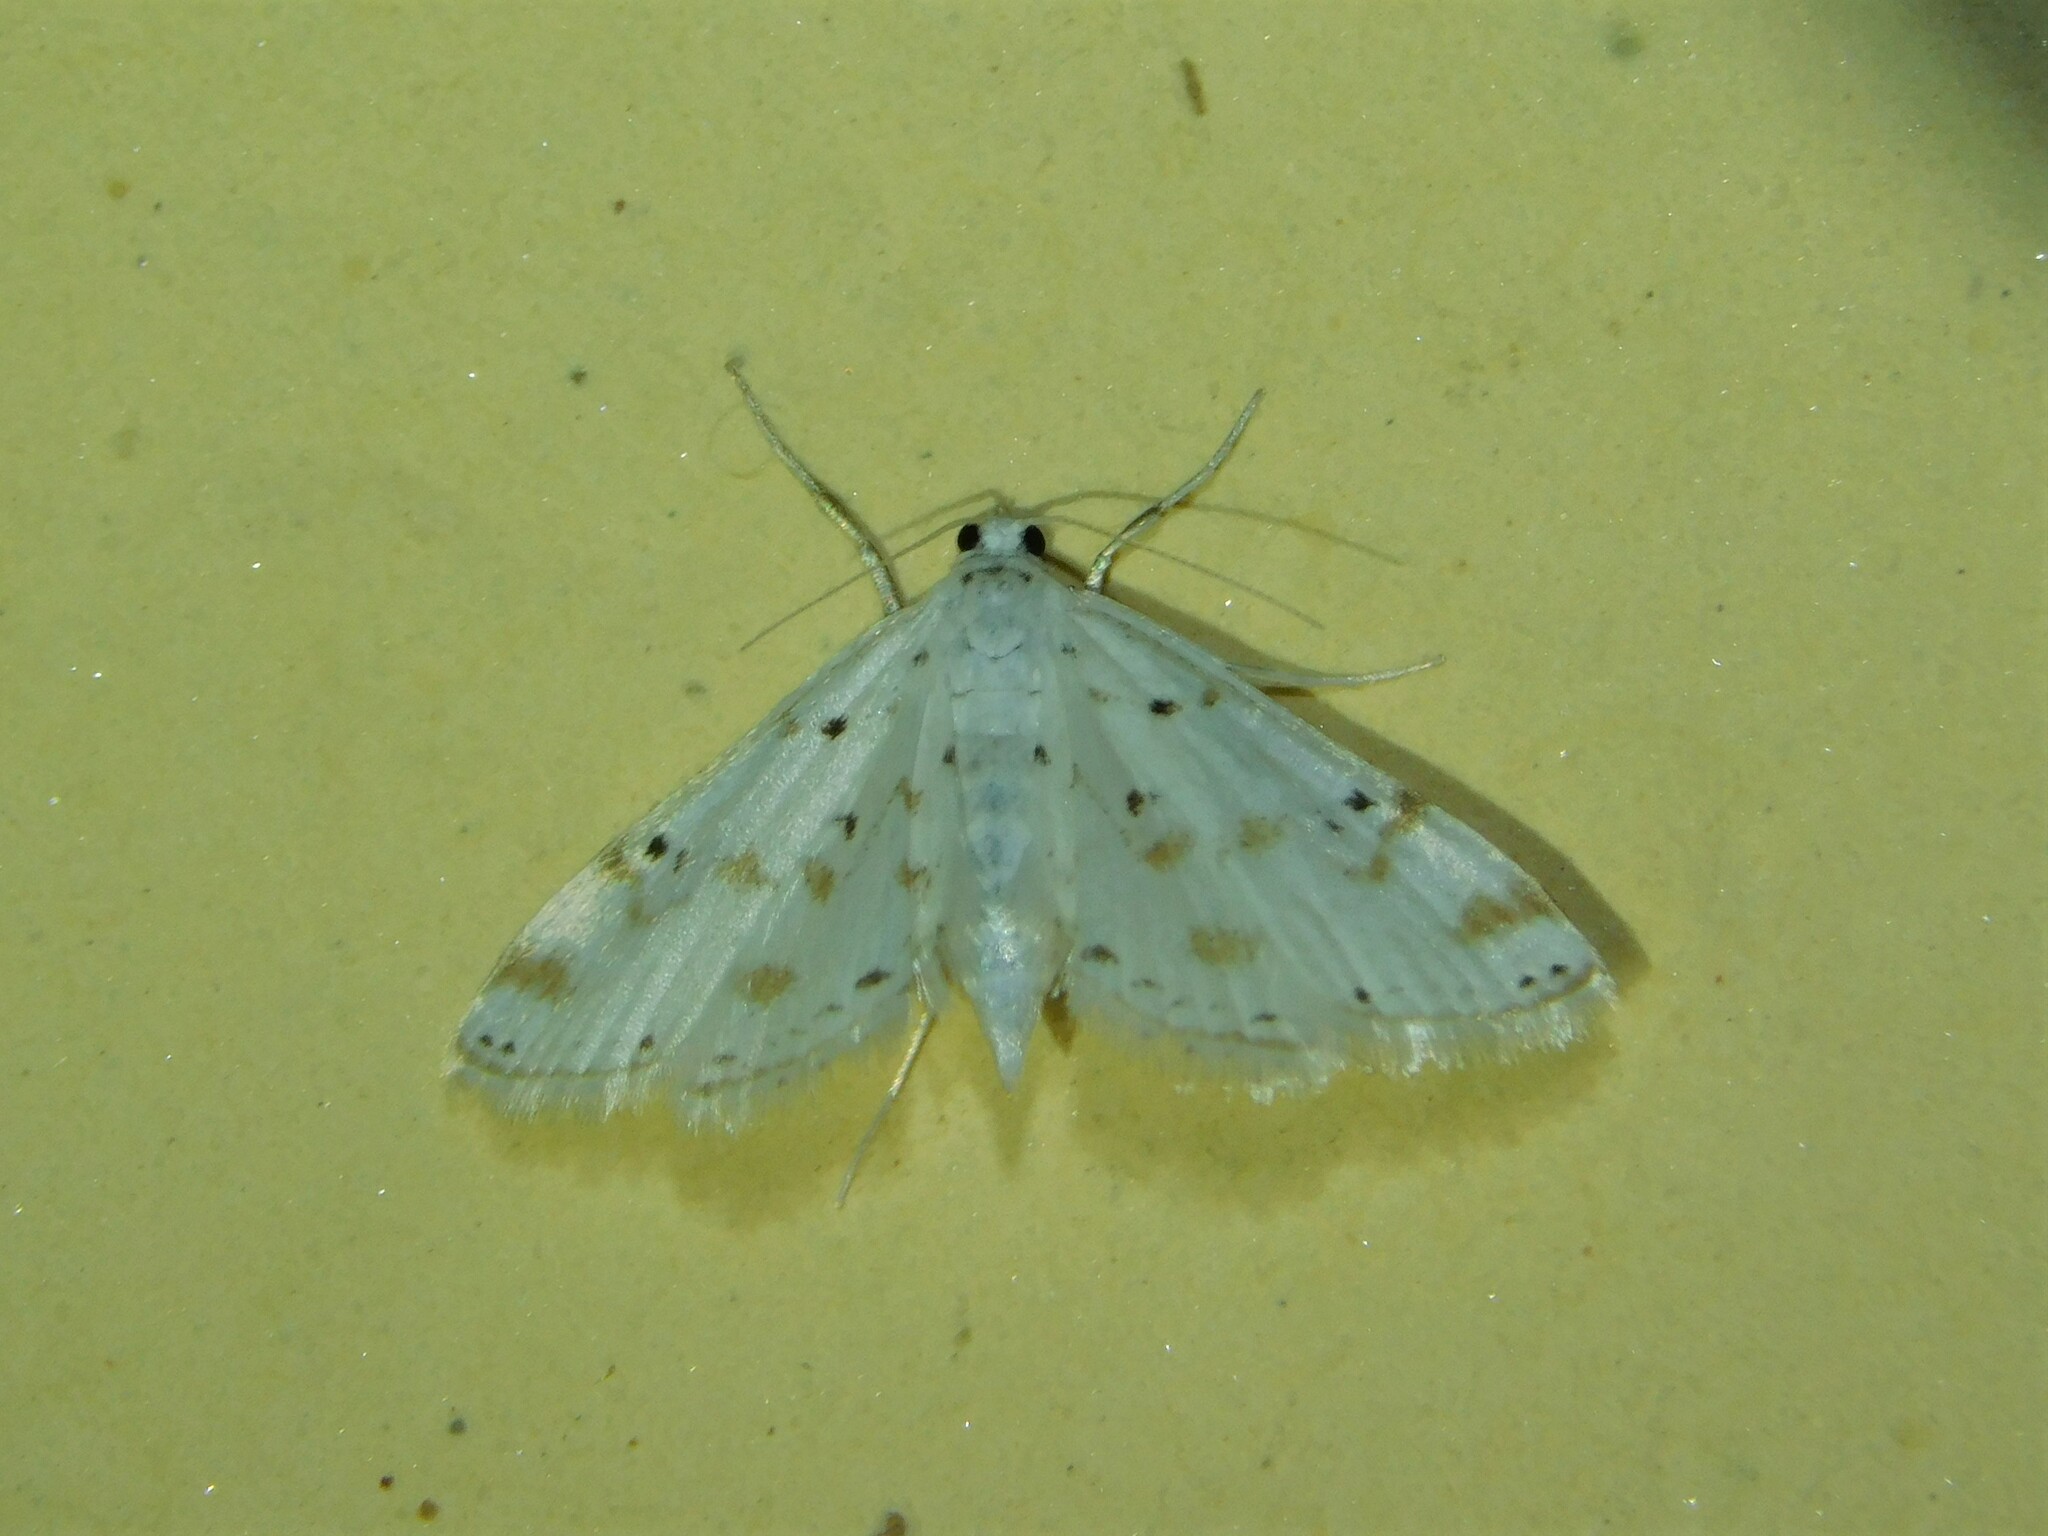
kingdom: Animalia
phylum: Arthropoda
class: Insecta
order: Lepidoptera
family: Crambidae
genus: Parapoynx
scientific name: Parapoynx stagnalis
